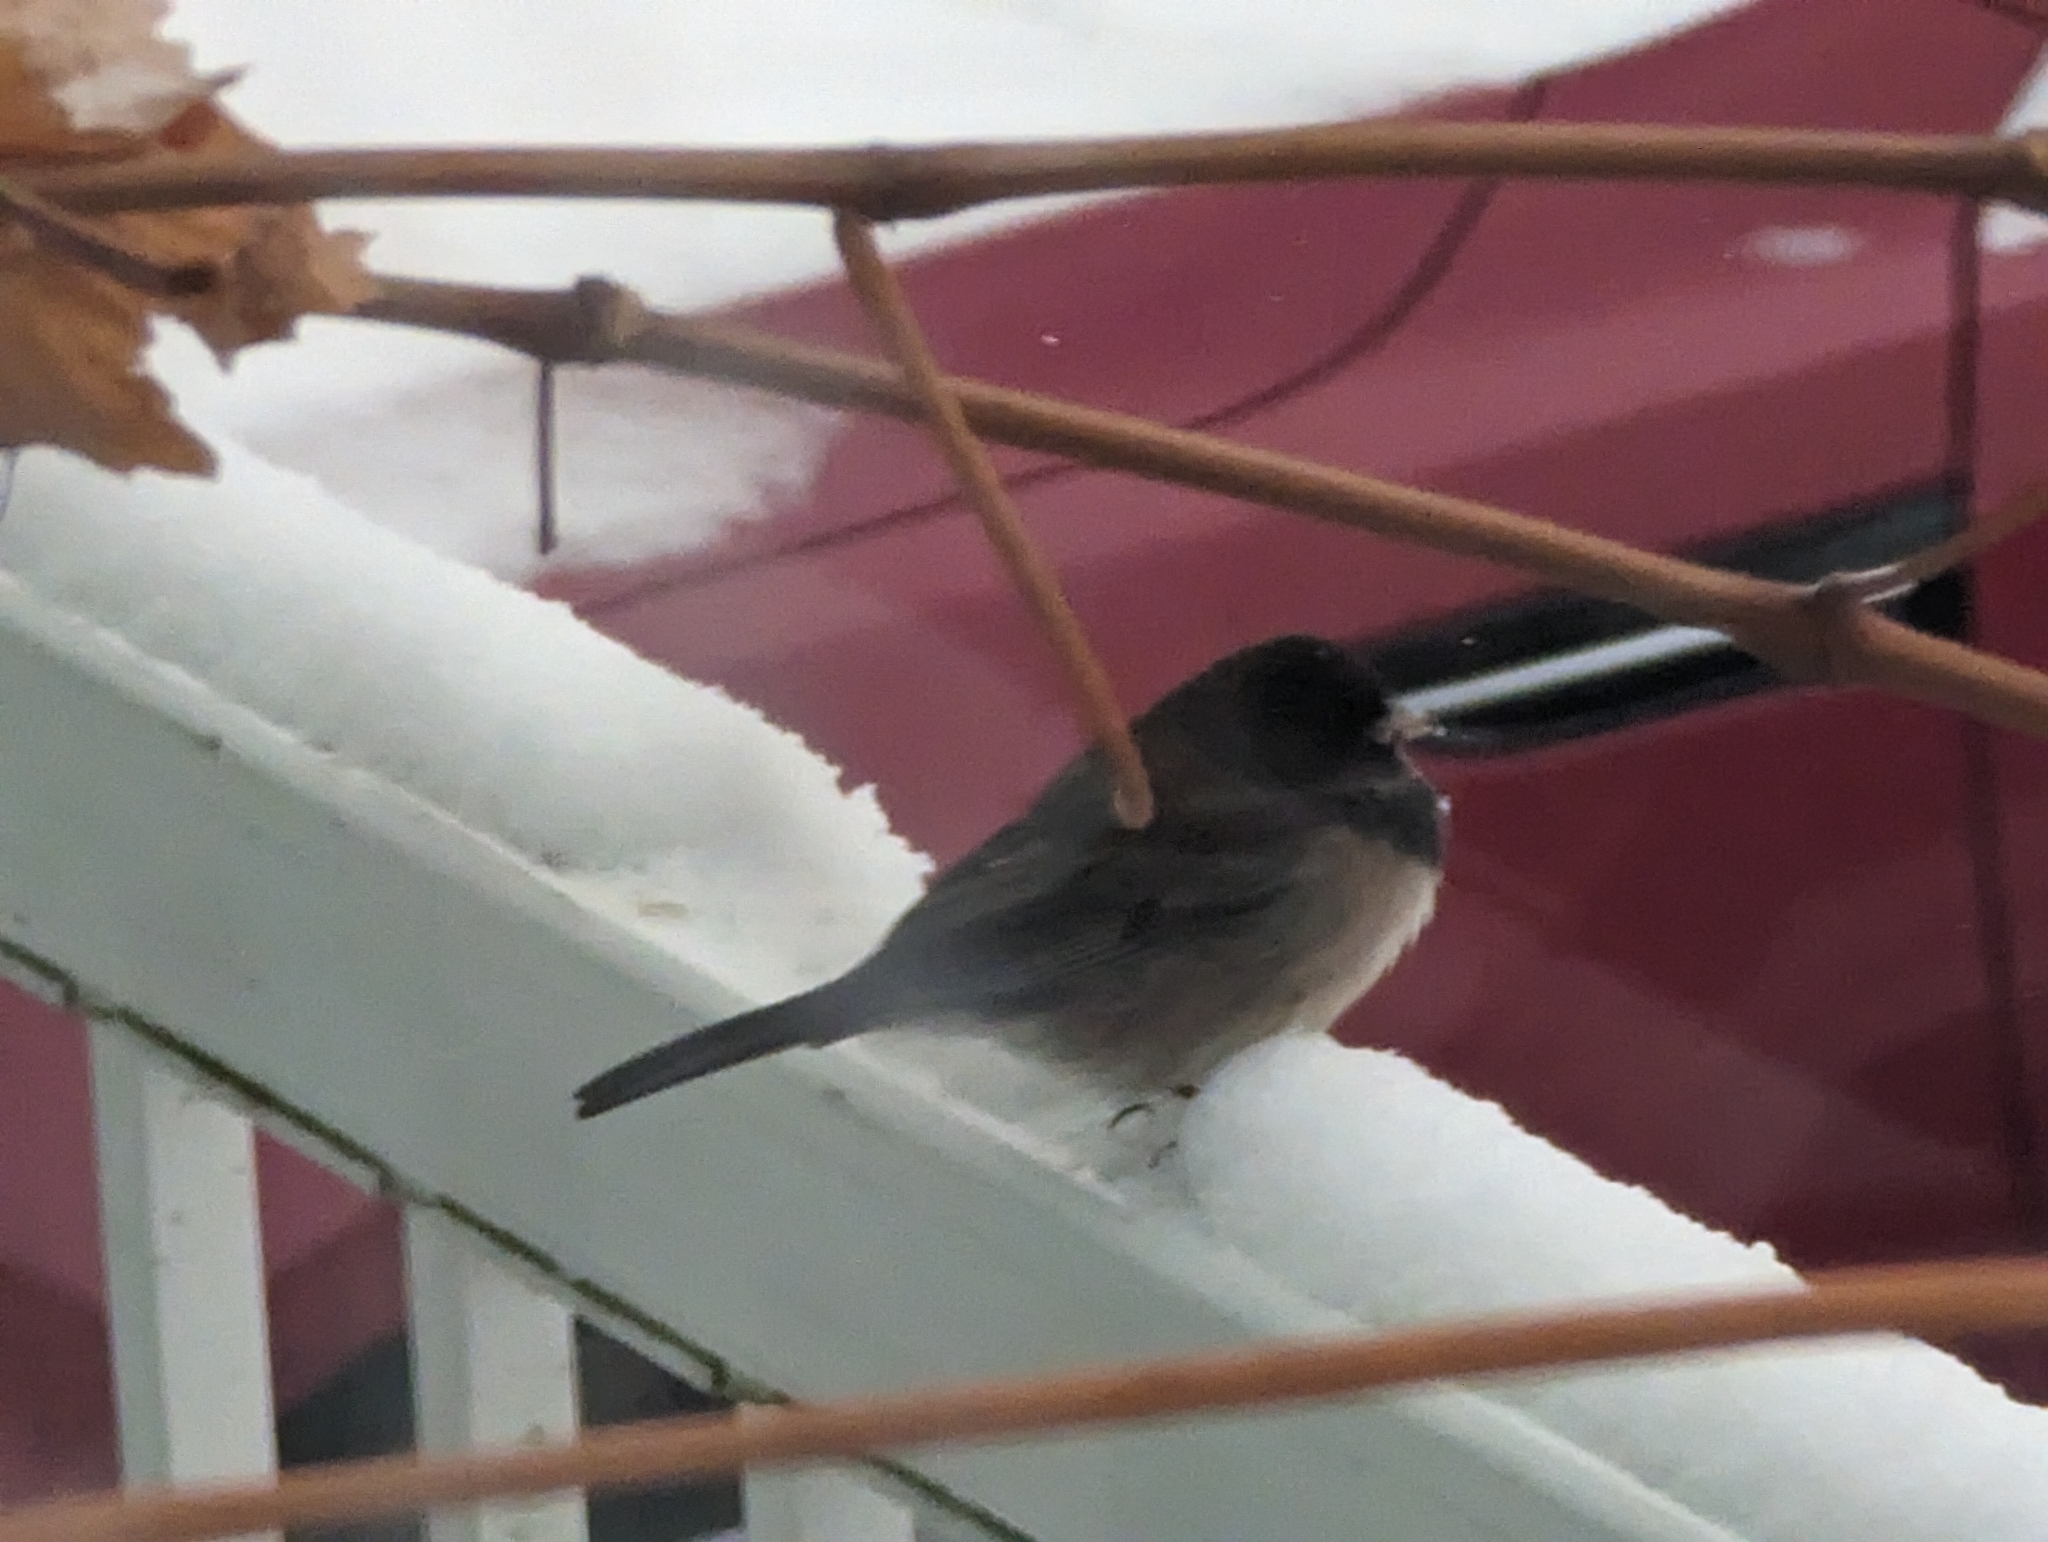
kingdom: Animalia
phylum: Chordata
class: Aves
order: Passeriformes
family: Passerellidae
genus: Junco
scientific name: Junco hyemalis
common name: Dark-eyed junco
